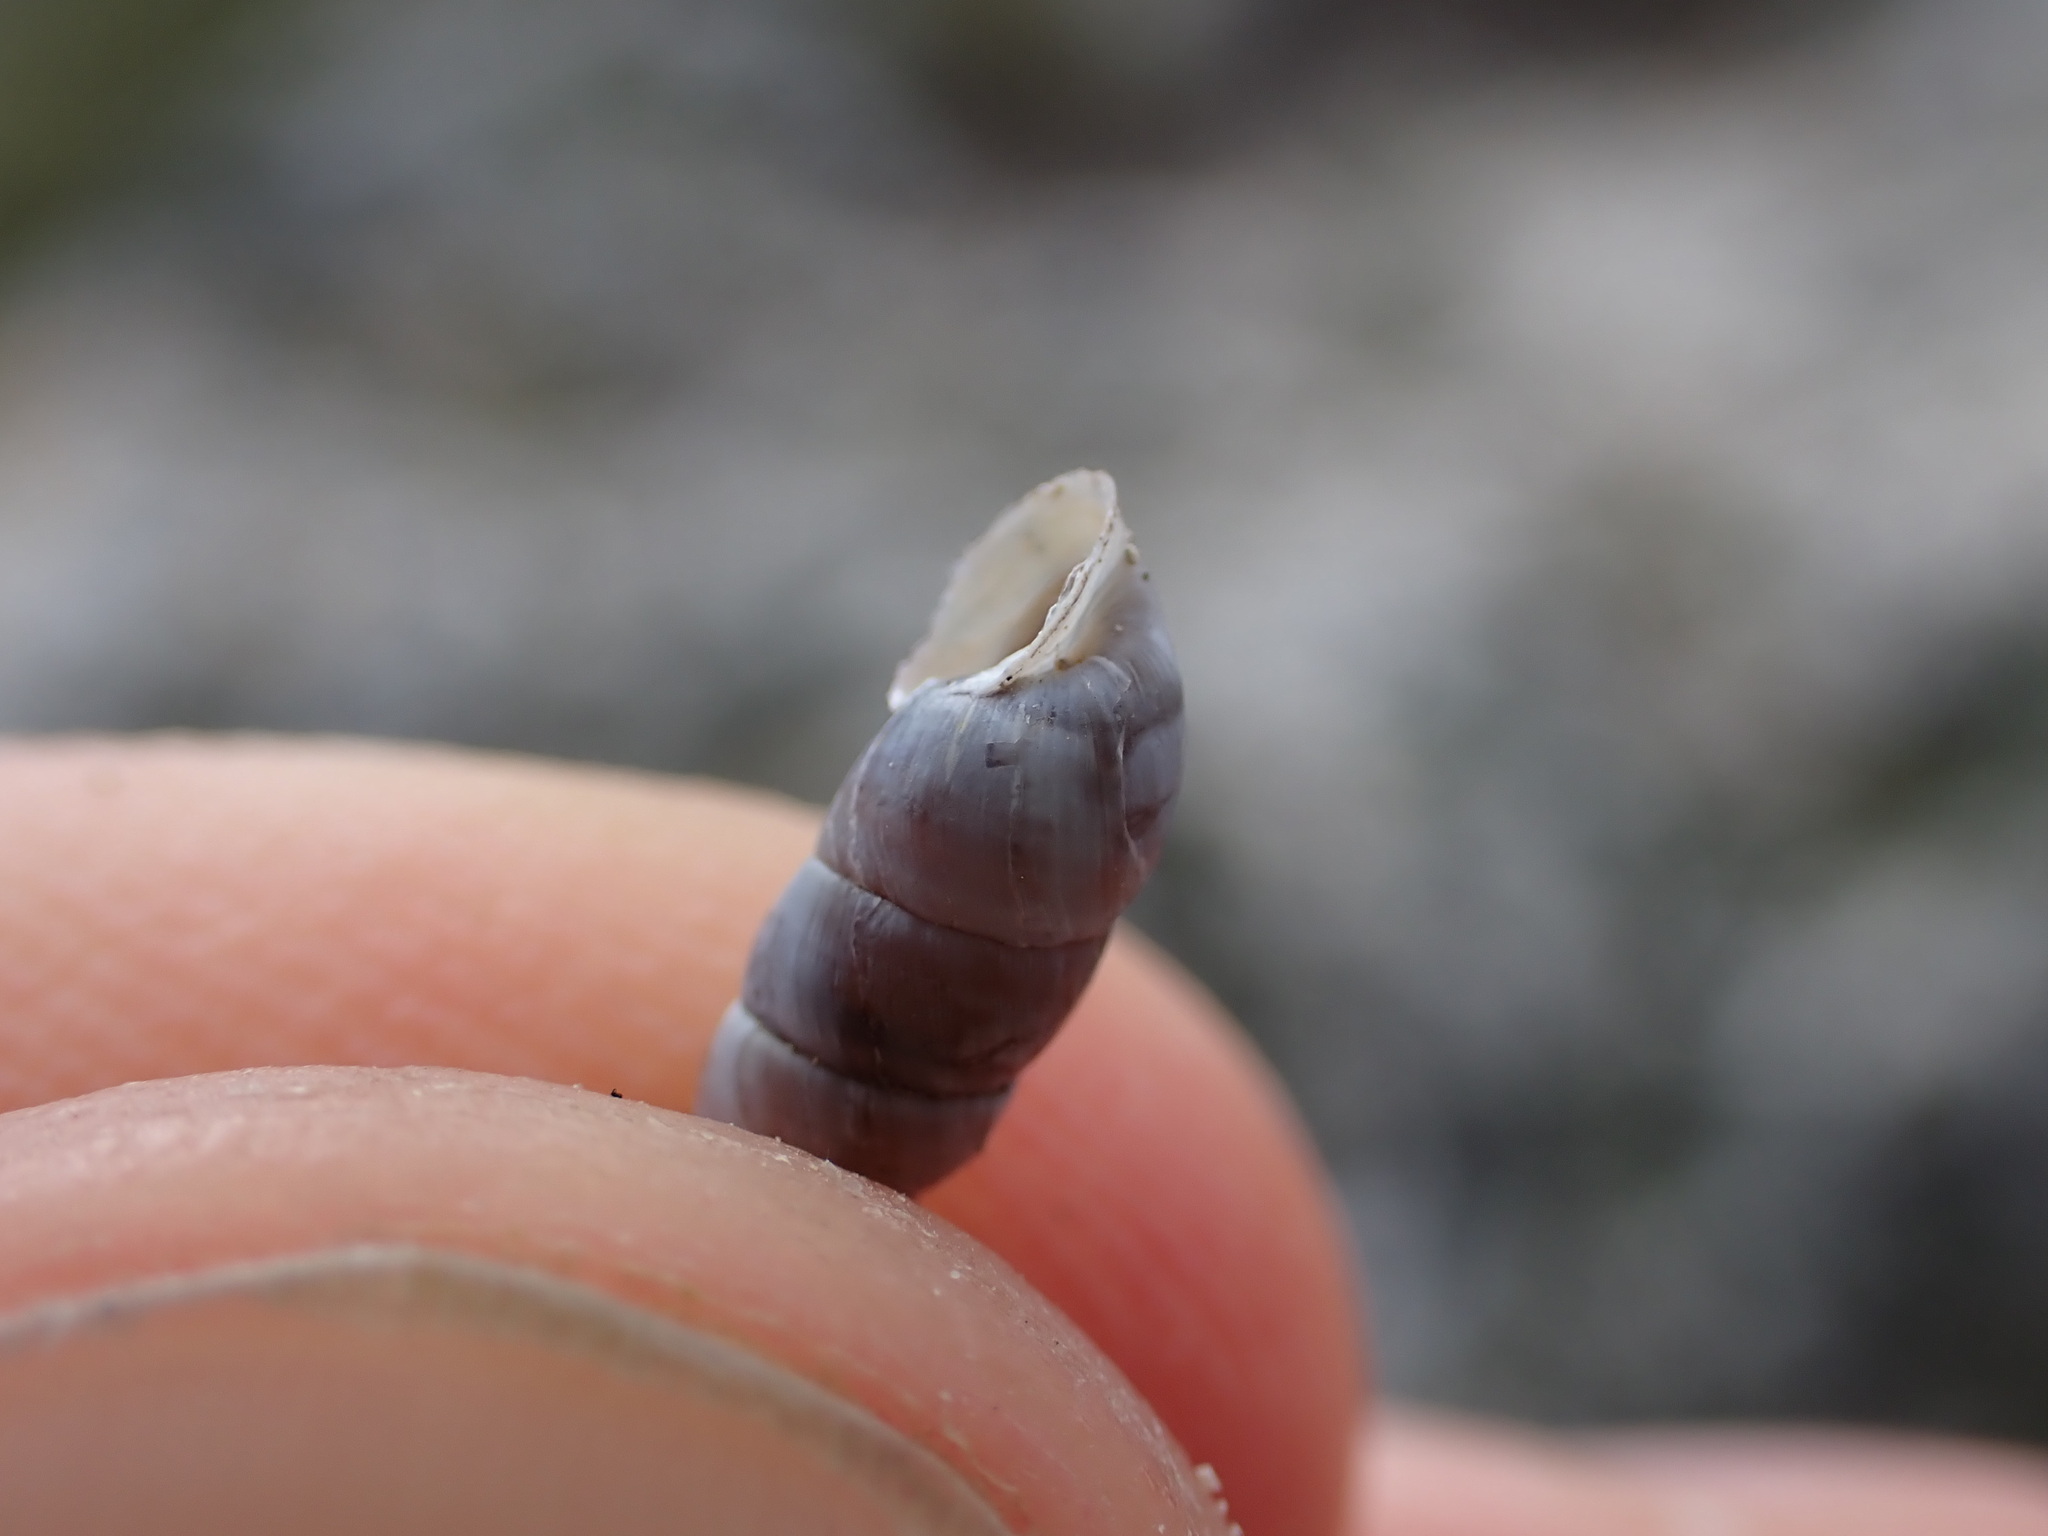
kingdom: Animalia
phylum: Mollusca
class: Gastropoda
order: Stylommatophora
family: Chondrinidae
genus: Solatopupa
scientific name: Solatopupa similis
